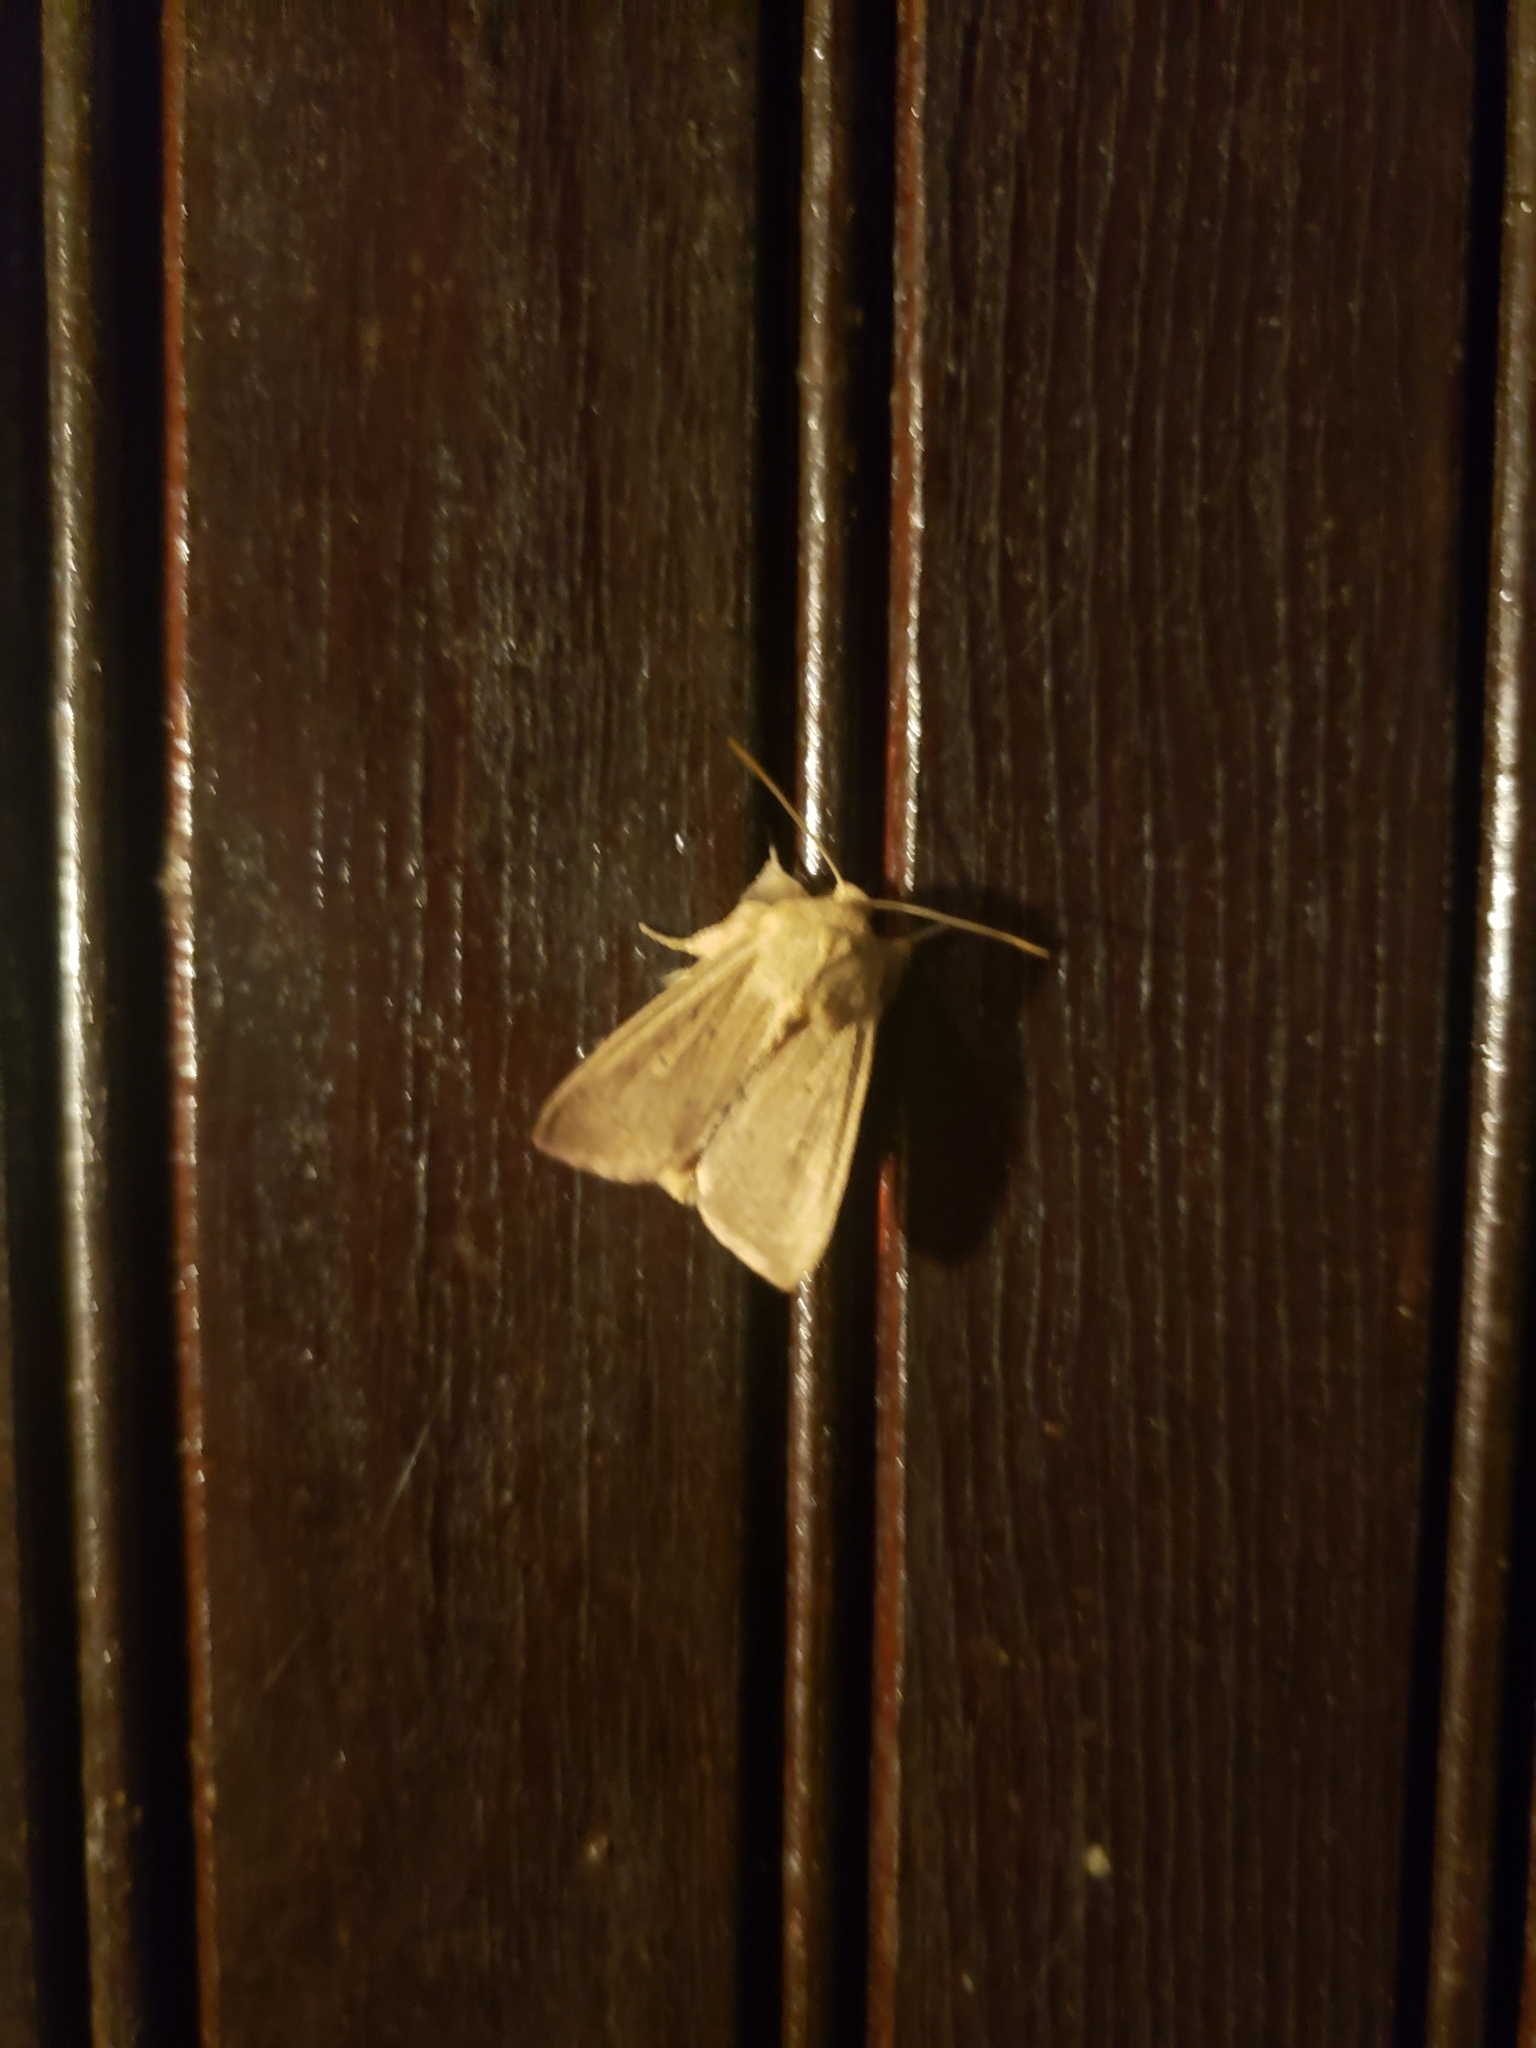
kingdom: Animalia
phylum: Arthropoda
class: Insecta
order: Lepidoptera
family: Noctuidae
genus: Leucania
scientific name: Leucania ursula
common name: Ursula wainscot
